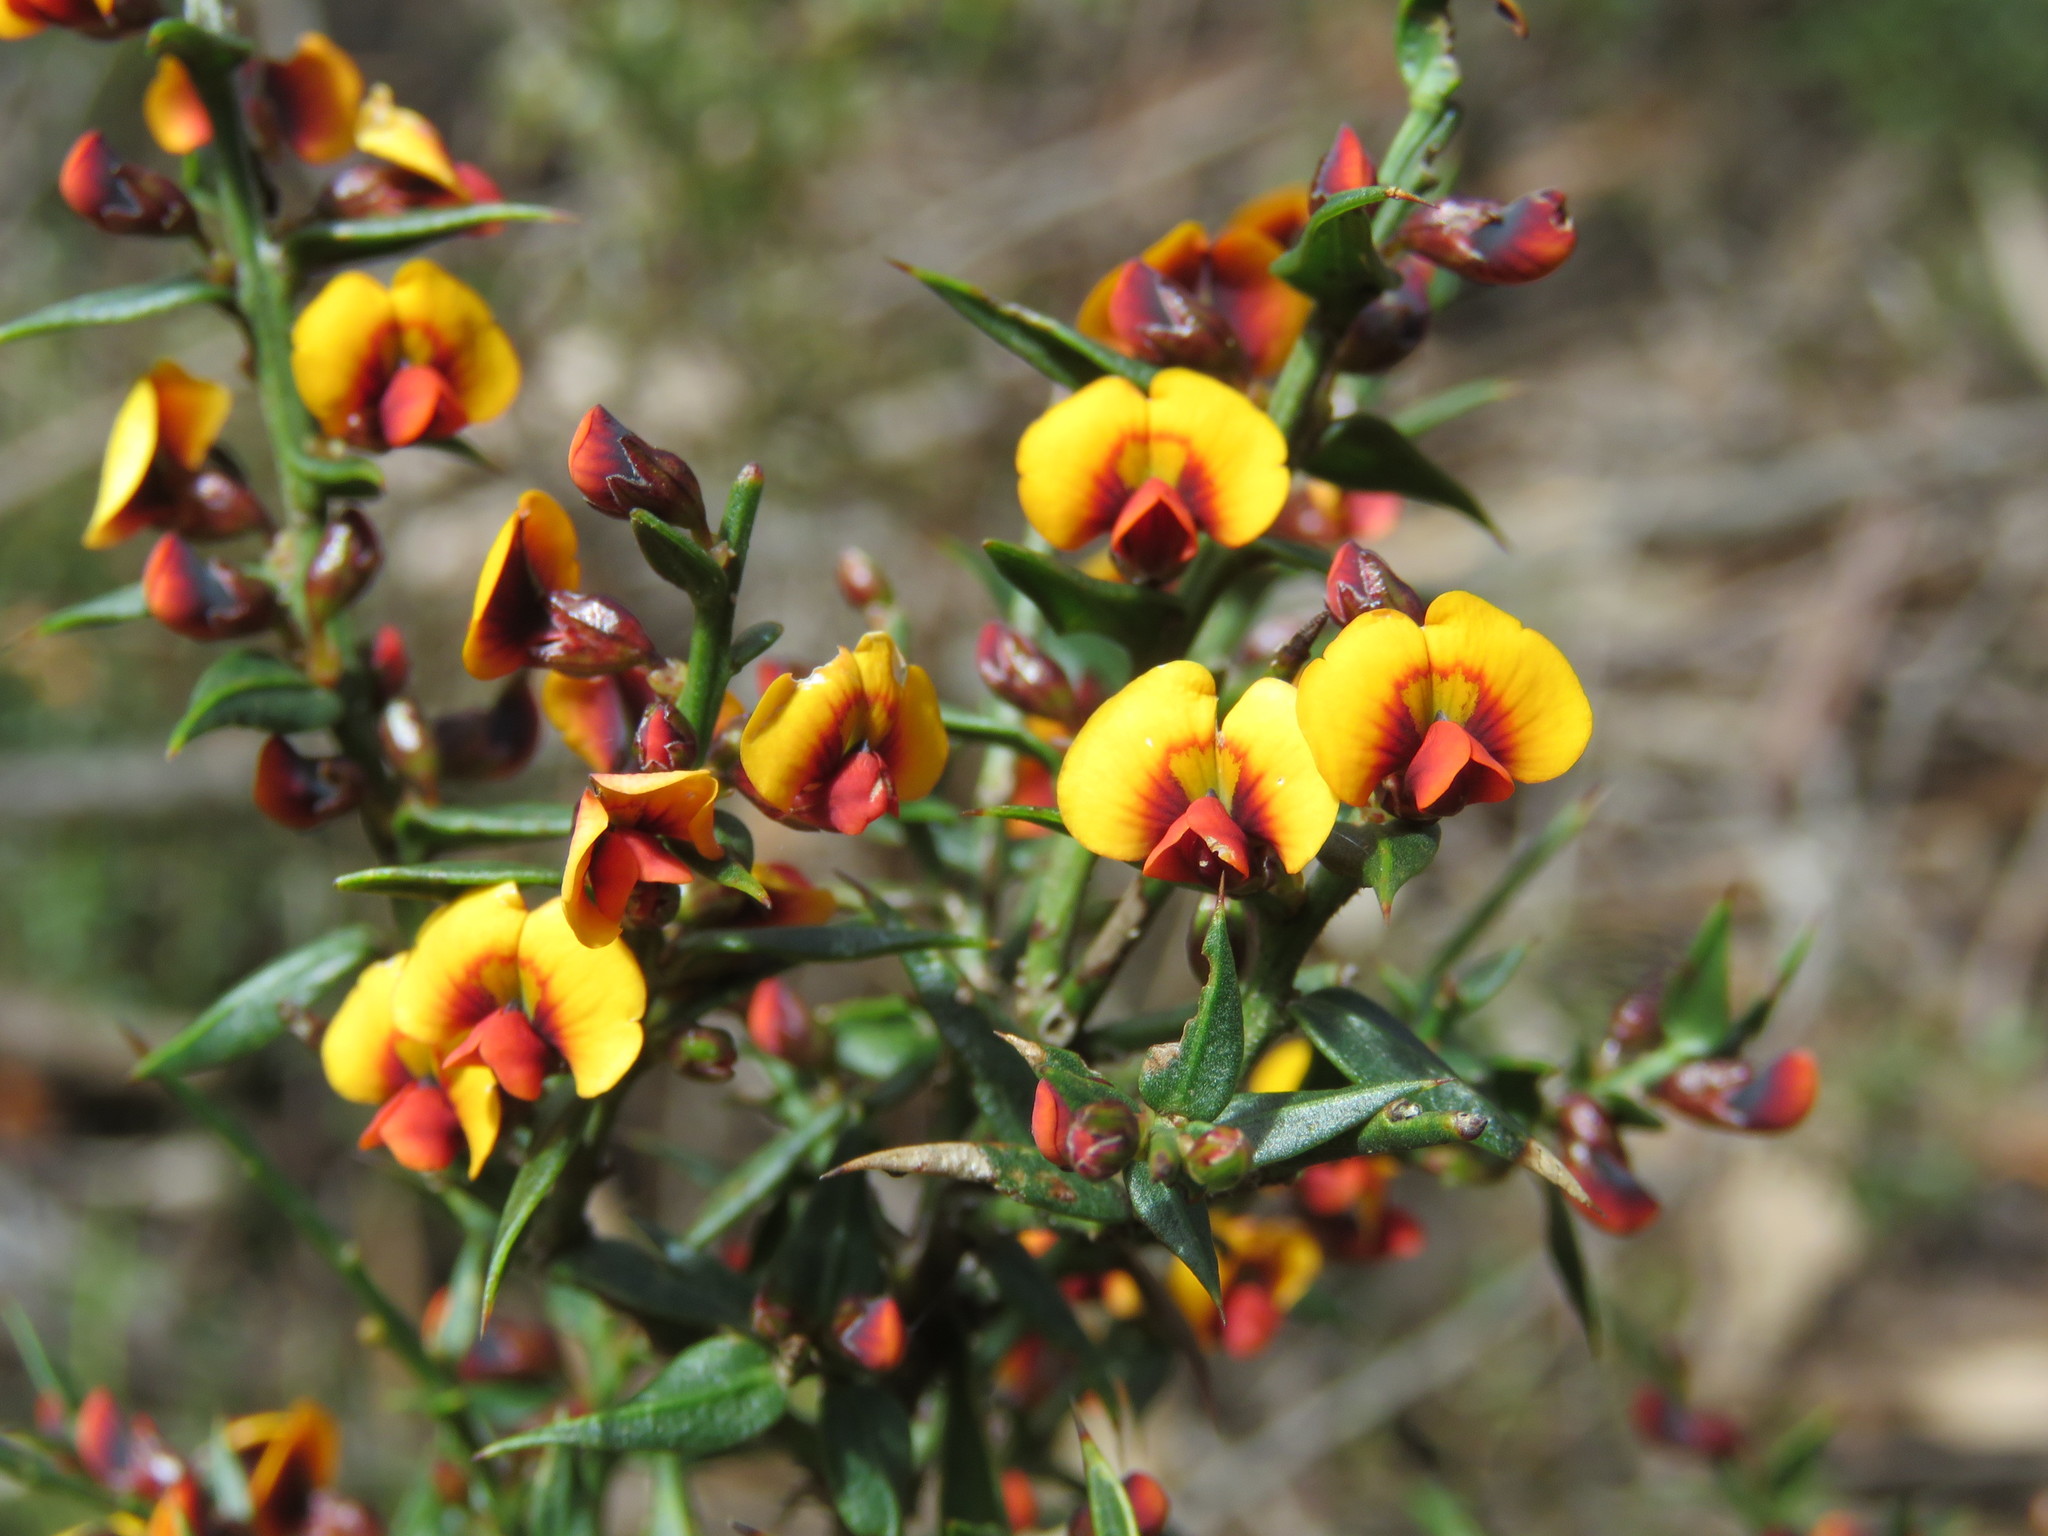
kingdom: Plantae
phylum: Tracheophyta
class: Magnoliopsida
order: Fabales
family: Fabaceae
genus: Daviesia
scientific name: Daviesia ulicifolia
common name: Gorse bitter-pea
